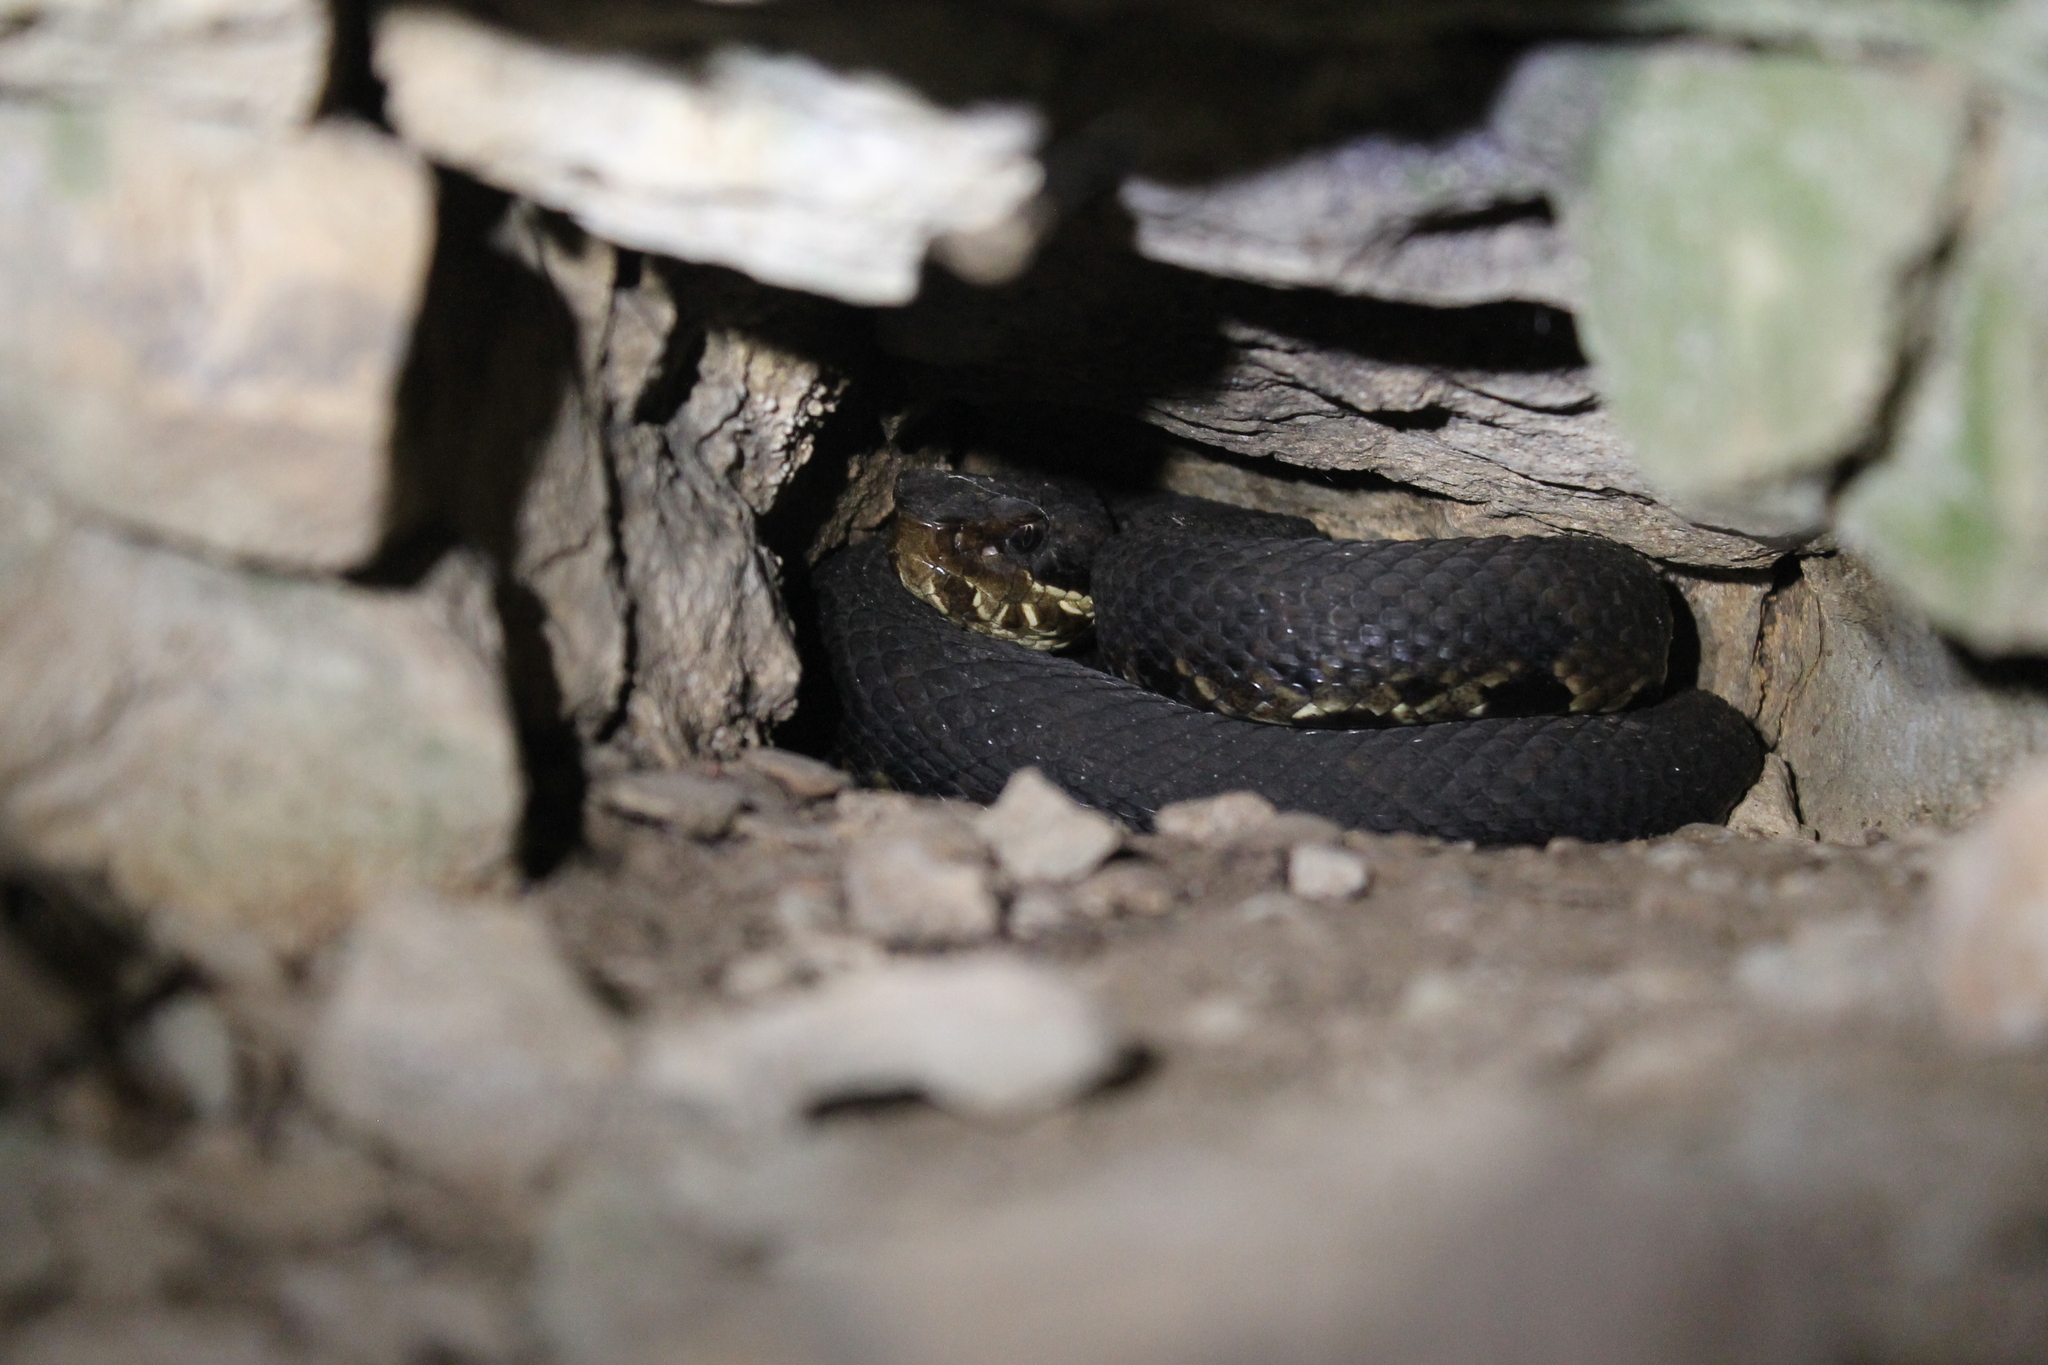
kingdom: Animalia
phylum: Chordata
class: Squamata
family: Viperidae
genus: Agkistrodon
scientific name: Agkistrodon piscivorus
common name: Cottonmouth
